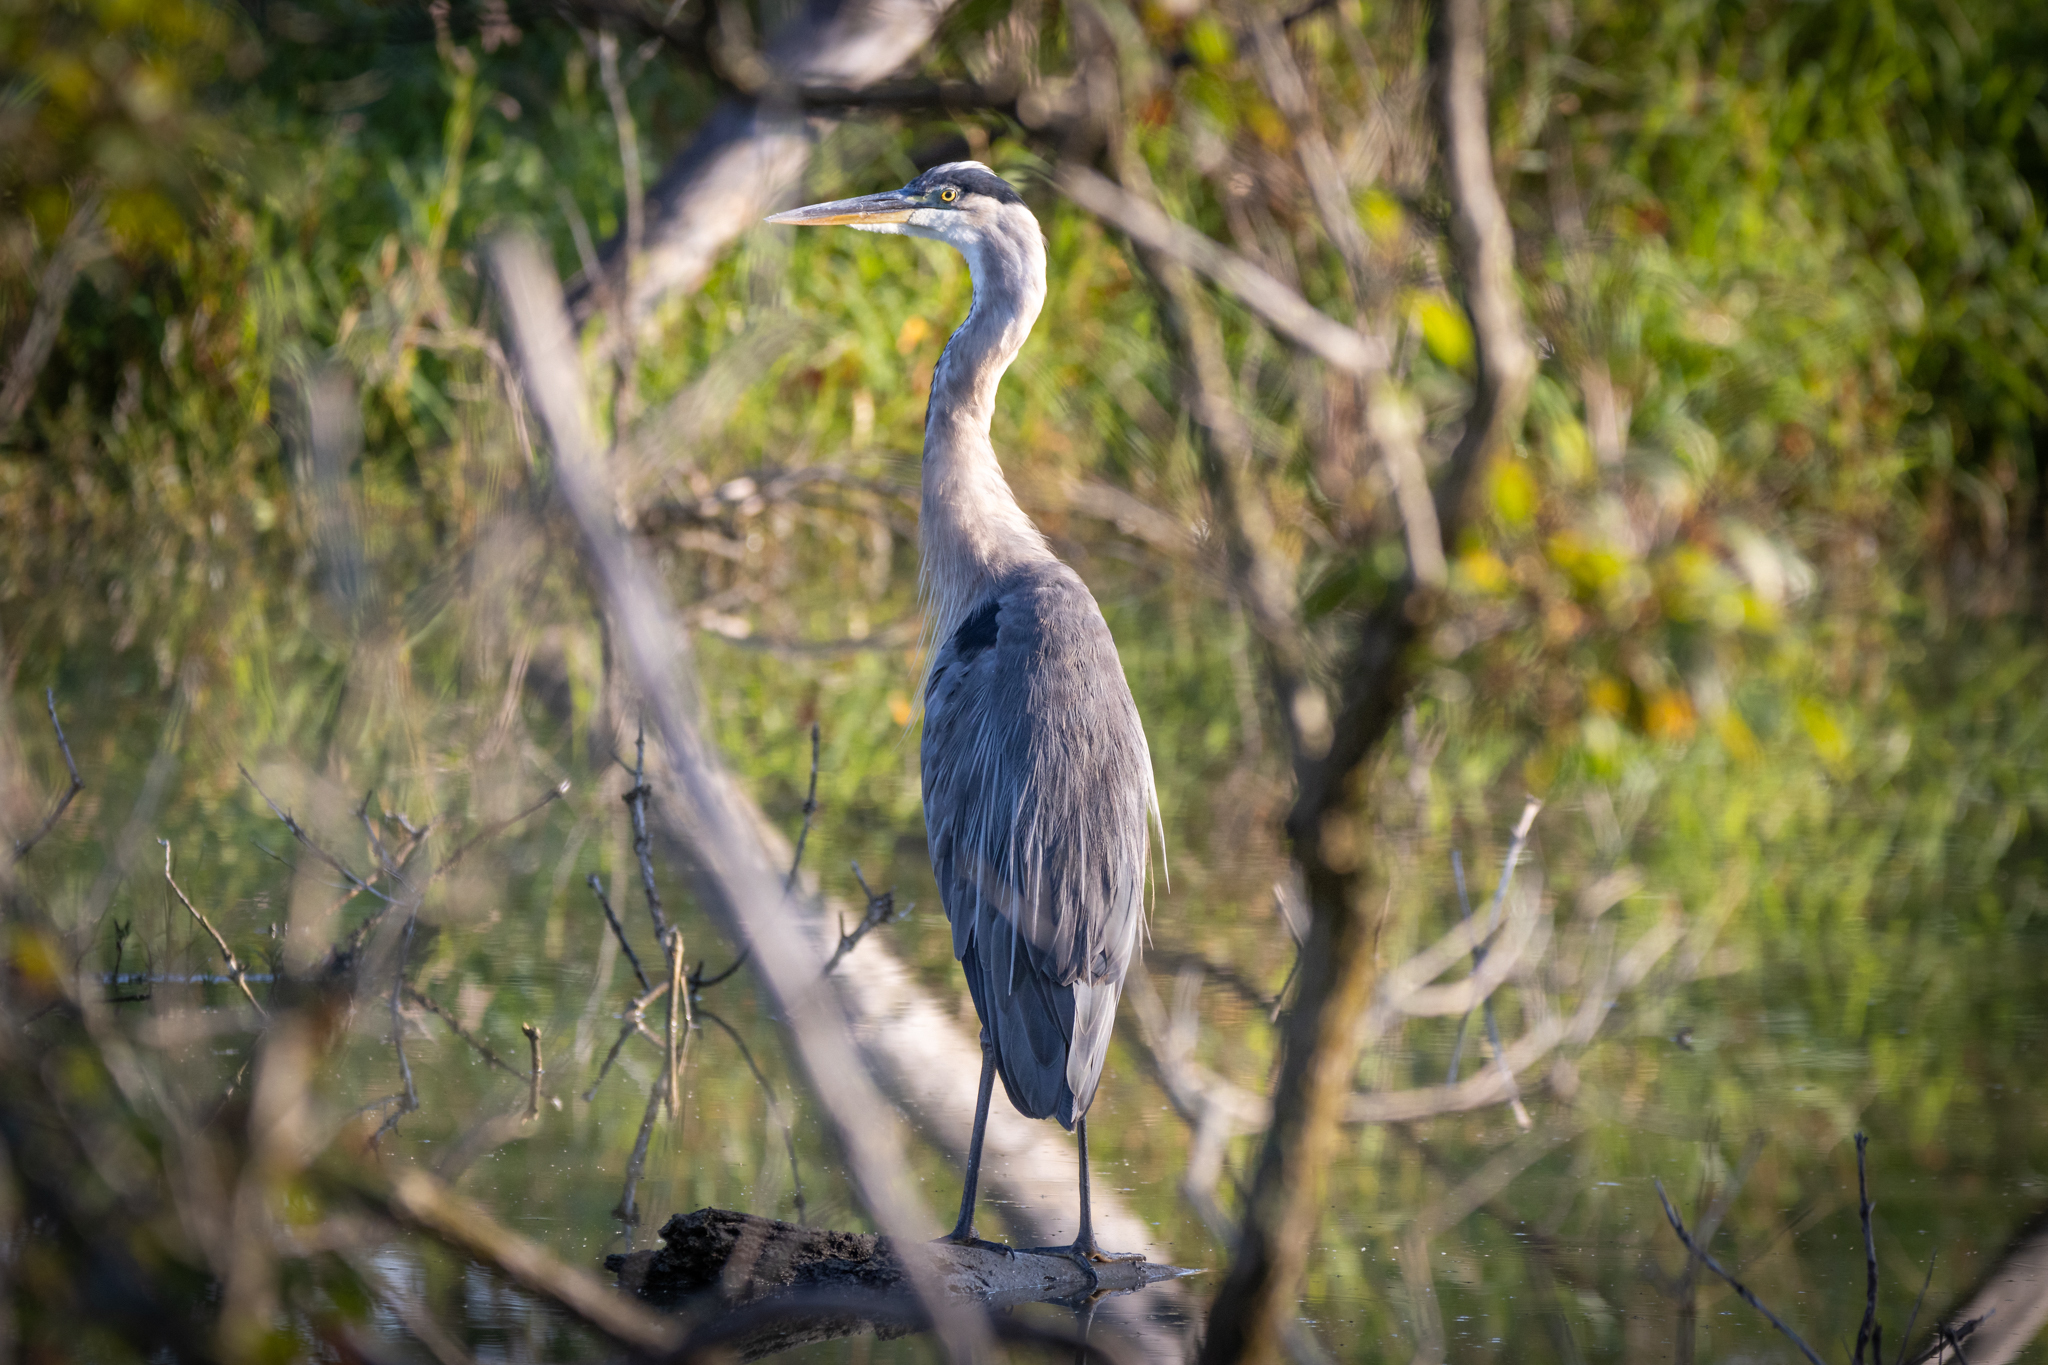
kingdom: Animalia
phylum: Chordata
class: Aves
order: Pelecaniformes
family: Ardeidae
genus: Ardea
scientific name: Ardea herodias
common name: Great blue heron
